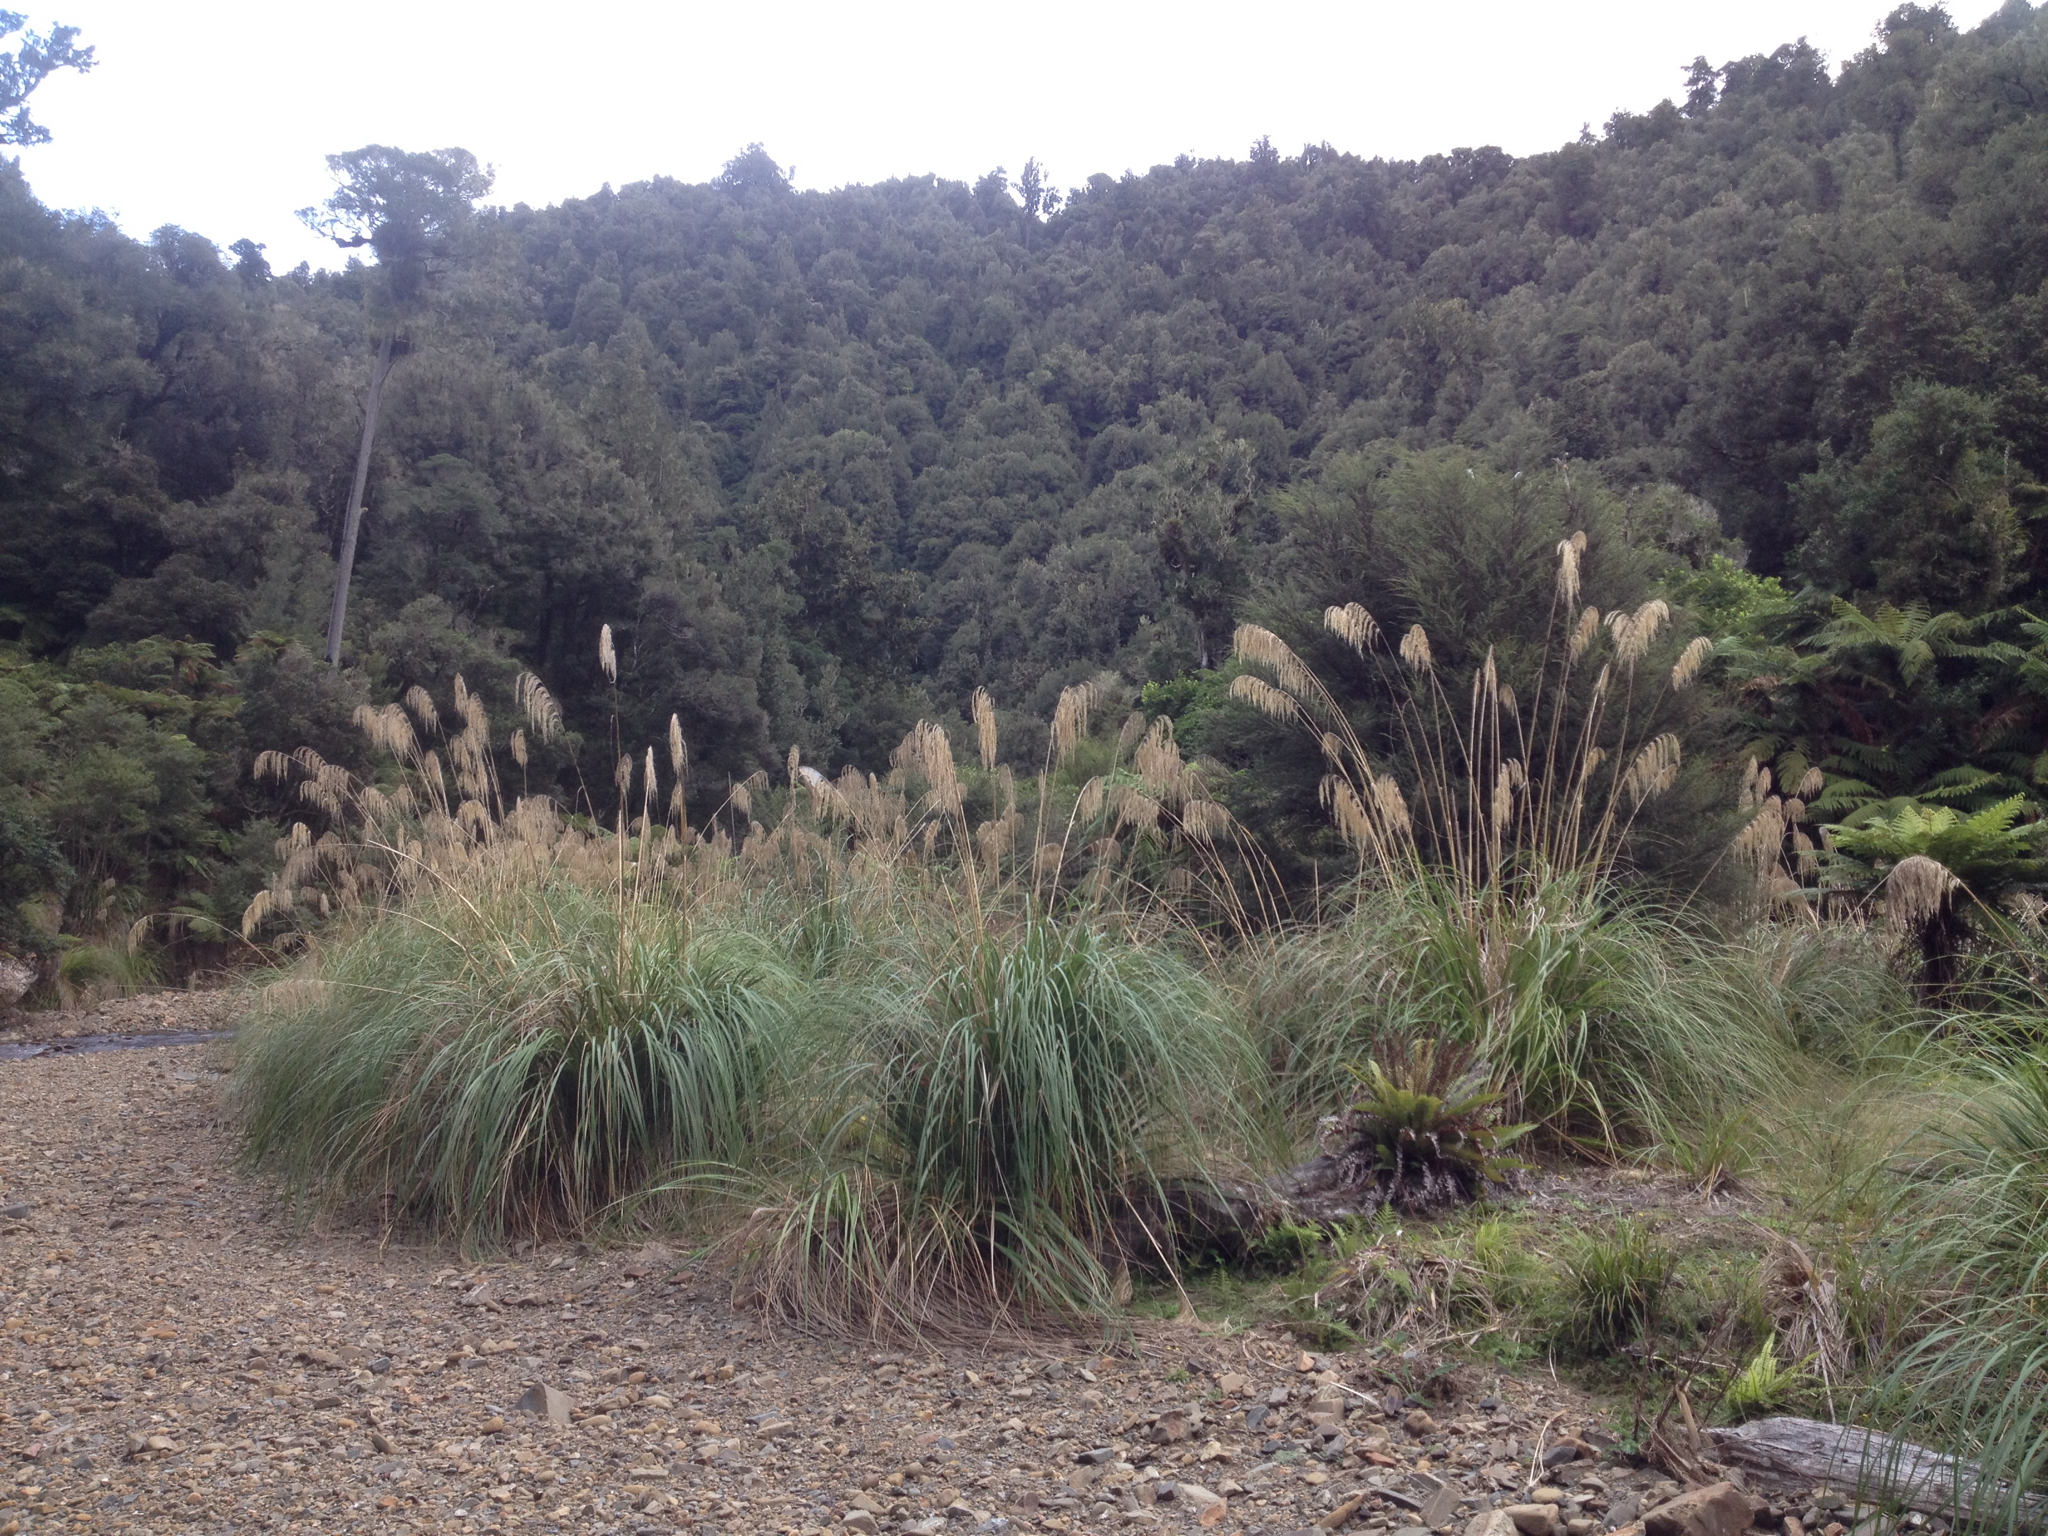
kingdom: Plantae
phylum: Tracheophyta
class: Liliopsida
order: Poales
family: Poaceae
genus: Austroderia
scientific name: Austroderia fulvida
